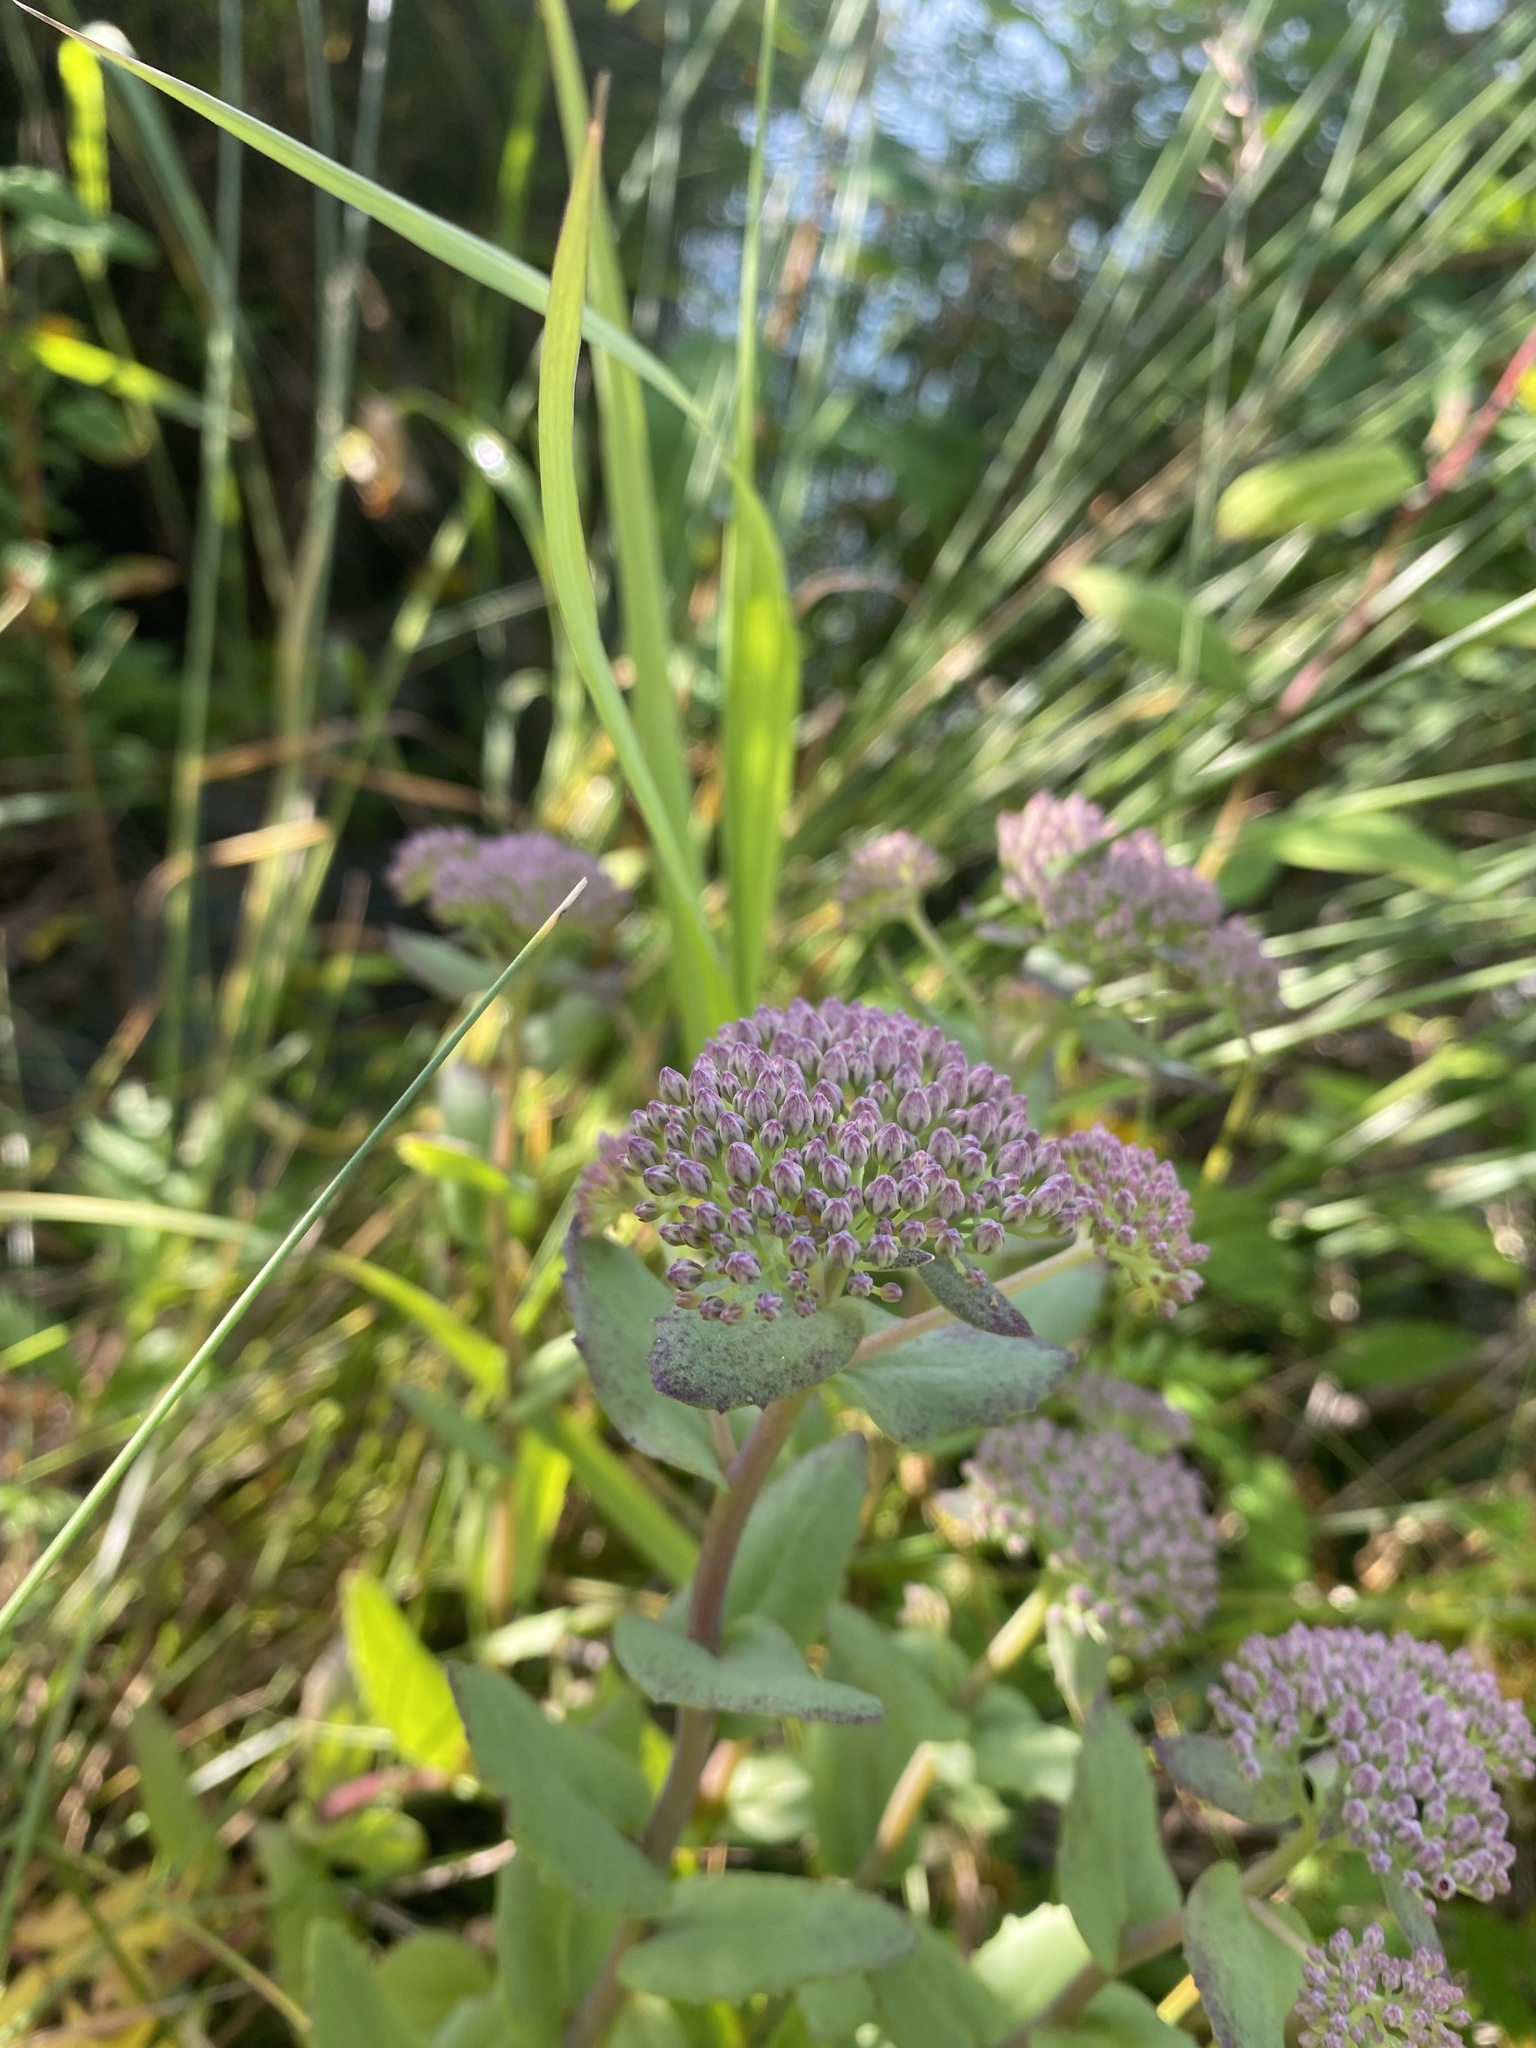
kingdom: Plantae
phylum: Tracheophyta
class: Magnoliopsida
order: Saxifragales
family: Crassulaceae
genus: Hylotelephium
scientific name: Hylotelephium telephium
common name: Live-forever
